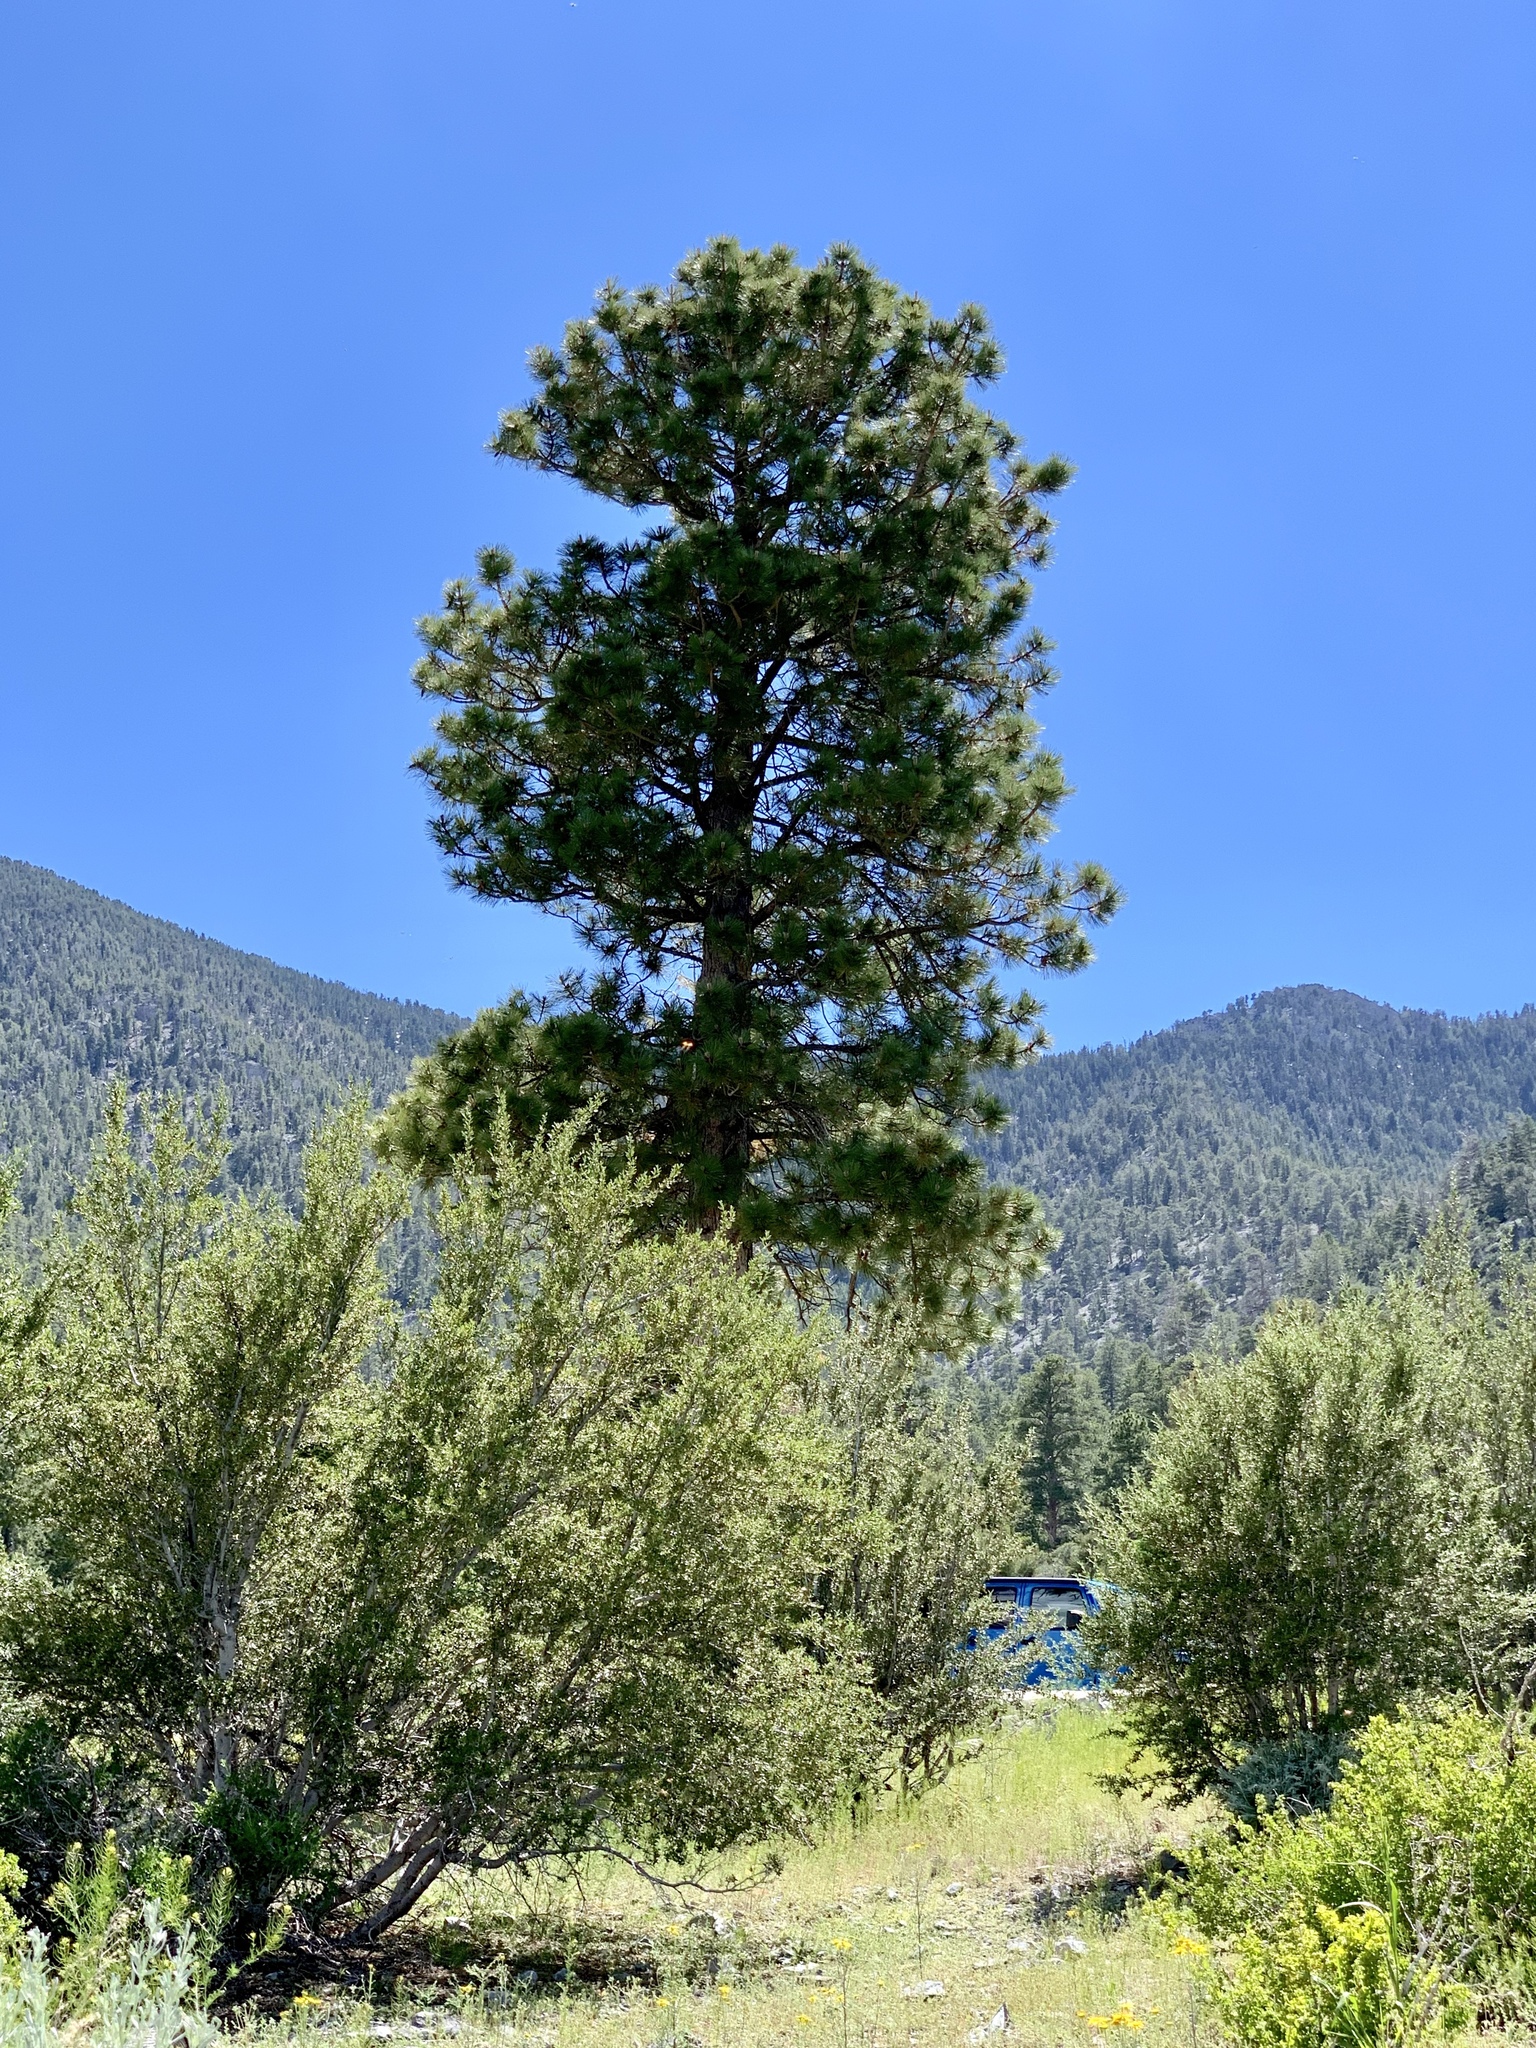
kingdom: Plantae
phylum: Tracheophyta
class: Pinopsida
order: Pinales
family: Pinaceae
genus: Pinus
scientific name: Pinus ponderosa
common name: Western yellow-pine
